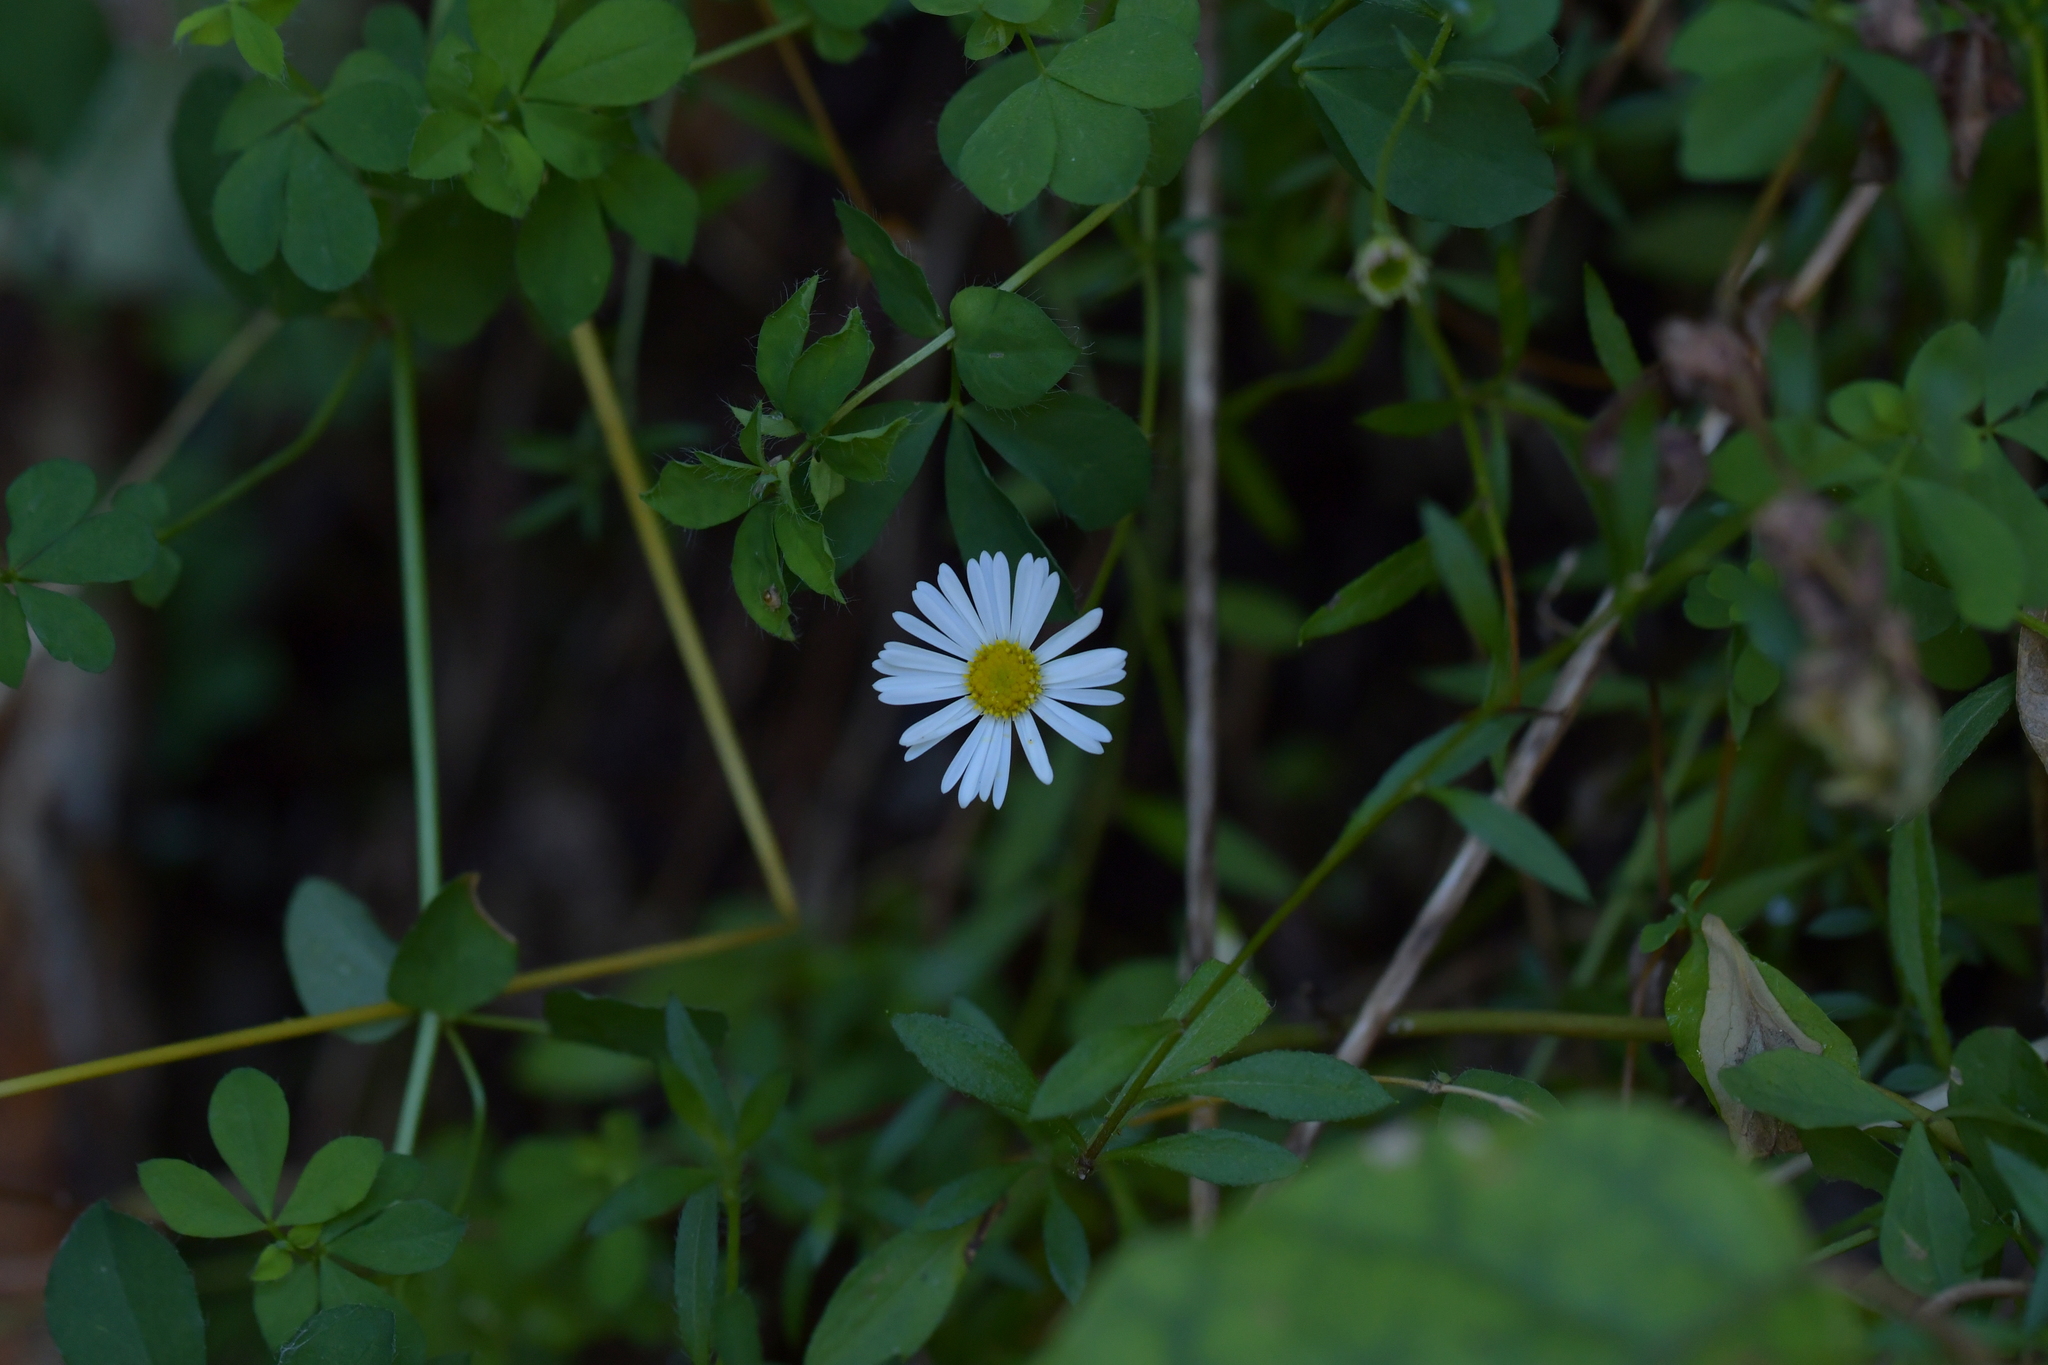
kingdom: Plantae
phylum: Tracheophyta
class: Magnoliopsida
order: Asterales
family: Asteraceae
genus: Erigeron
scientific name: Erigeron karvinskianus
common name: Mexican fleabane
